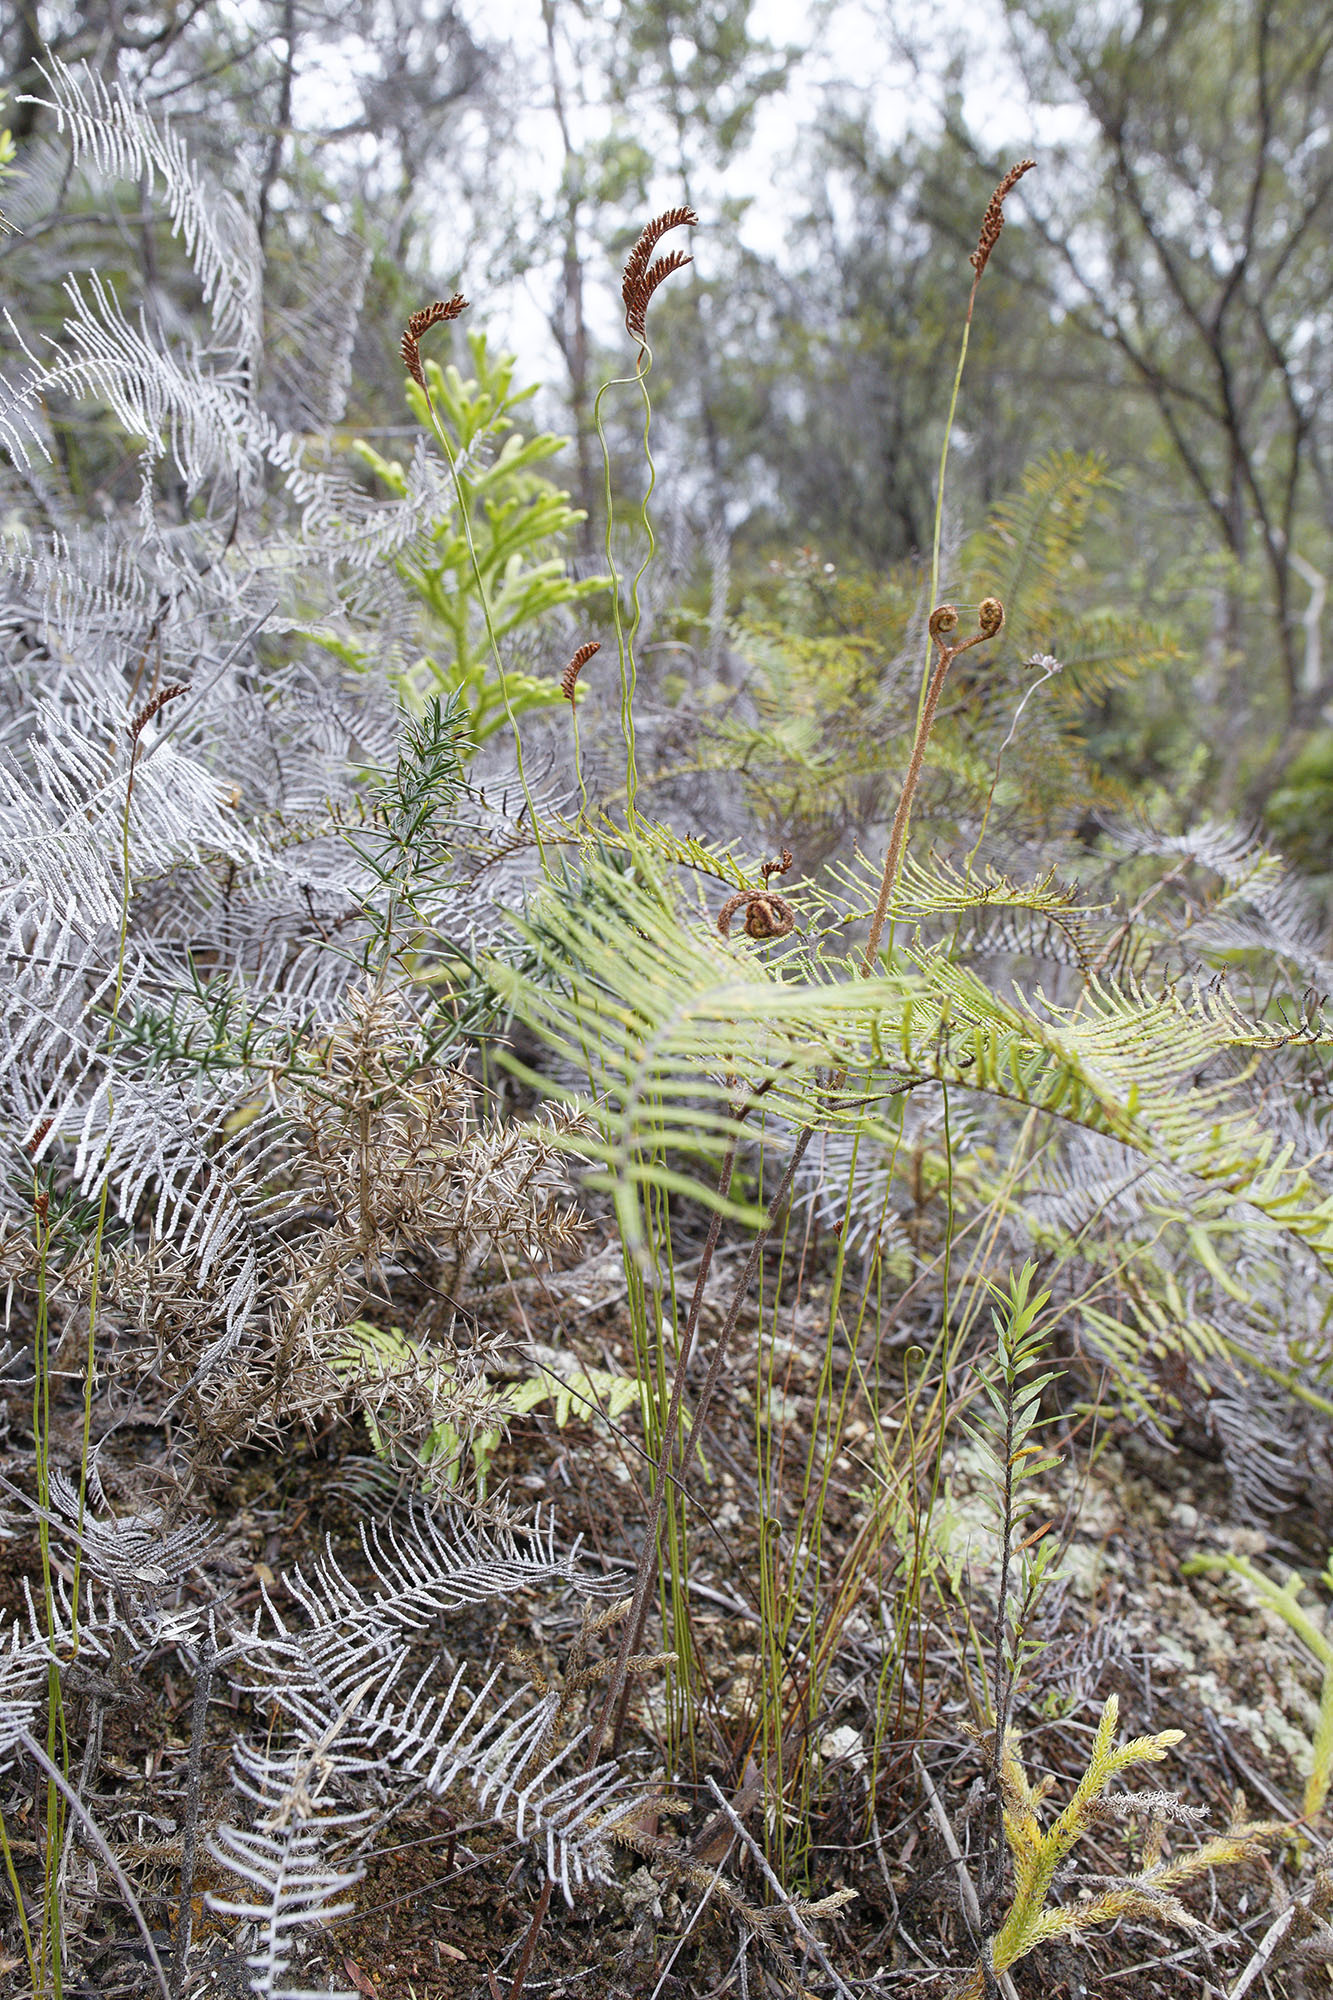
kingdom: Plantae
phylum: Tracheophyta
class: Polypodiopsida
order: Schizaeales
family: Schizaeaceae
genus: Microschizaea
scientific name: Microschizaea fistulosa
